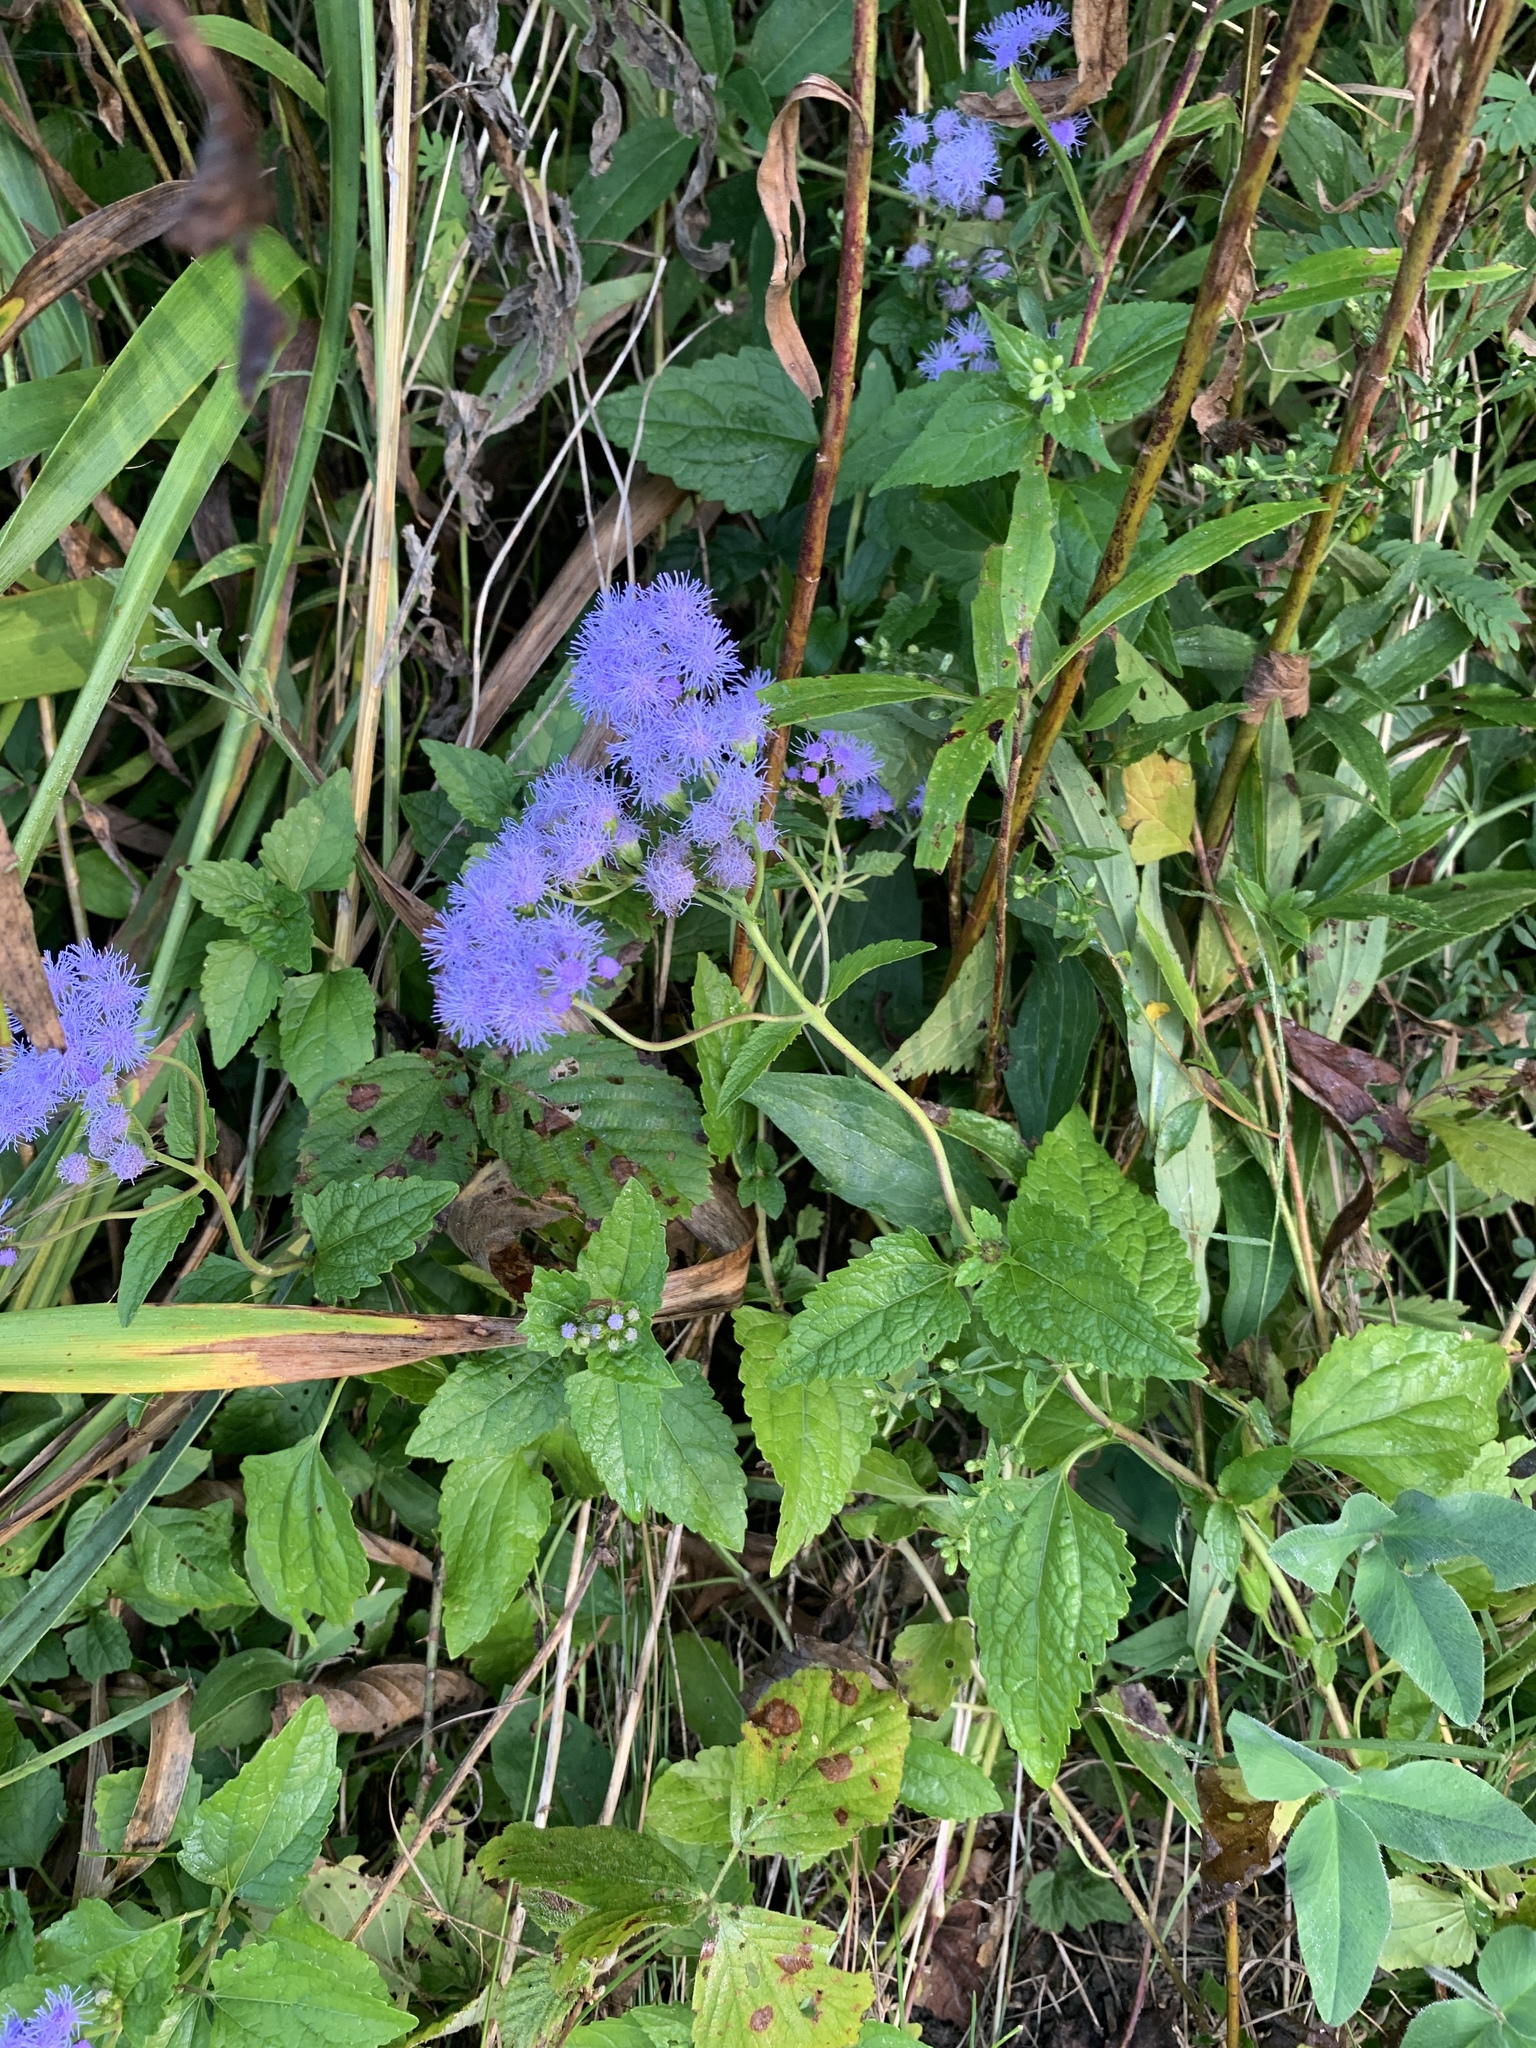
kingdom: Plantae
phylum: Tracheophyta
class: Magnoliopsida
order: Asterales
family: Asteraceae
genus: Conoclinium
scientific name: Conoclinium coelestinum
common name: Blue mistflower
